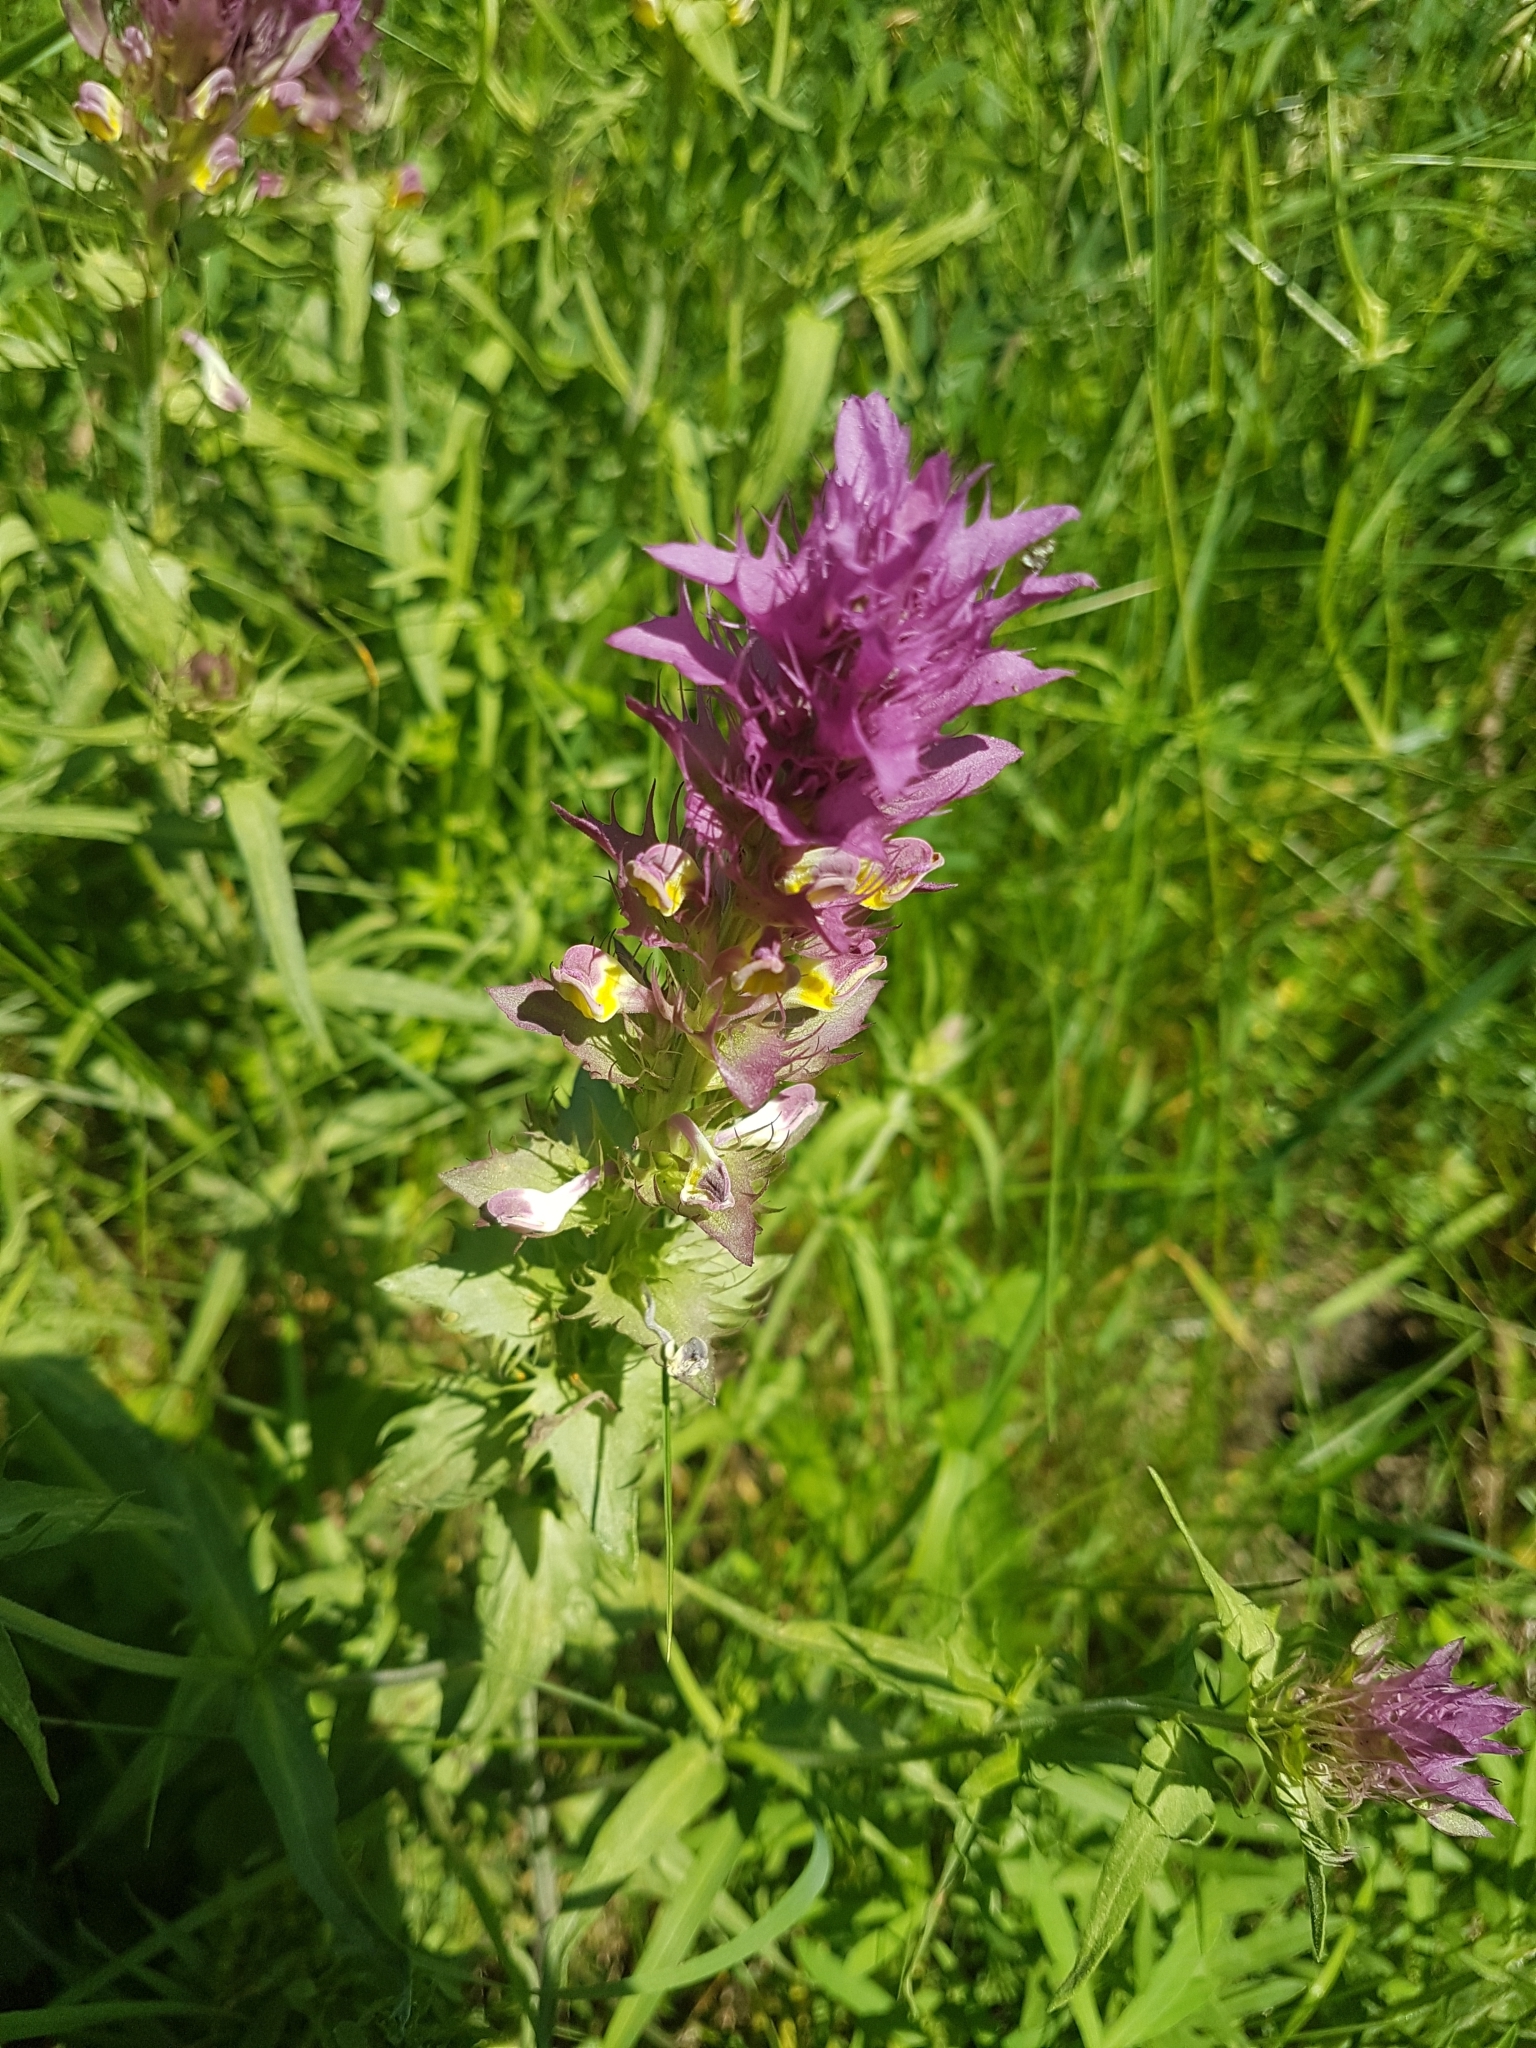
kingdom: Plantae
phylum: Tracheophyta
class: Magnoliopsida
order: Lamiales
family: Orobanchaceae
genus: Melampyrum
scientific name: Melampyrum arvense
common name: Field cow-wheat
